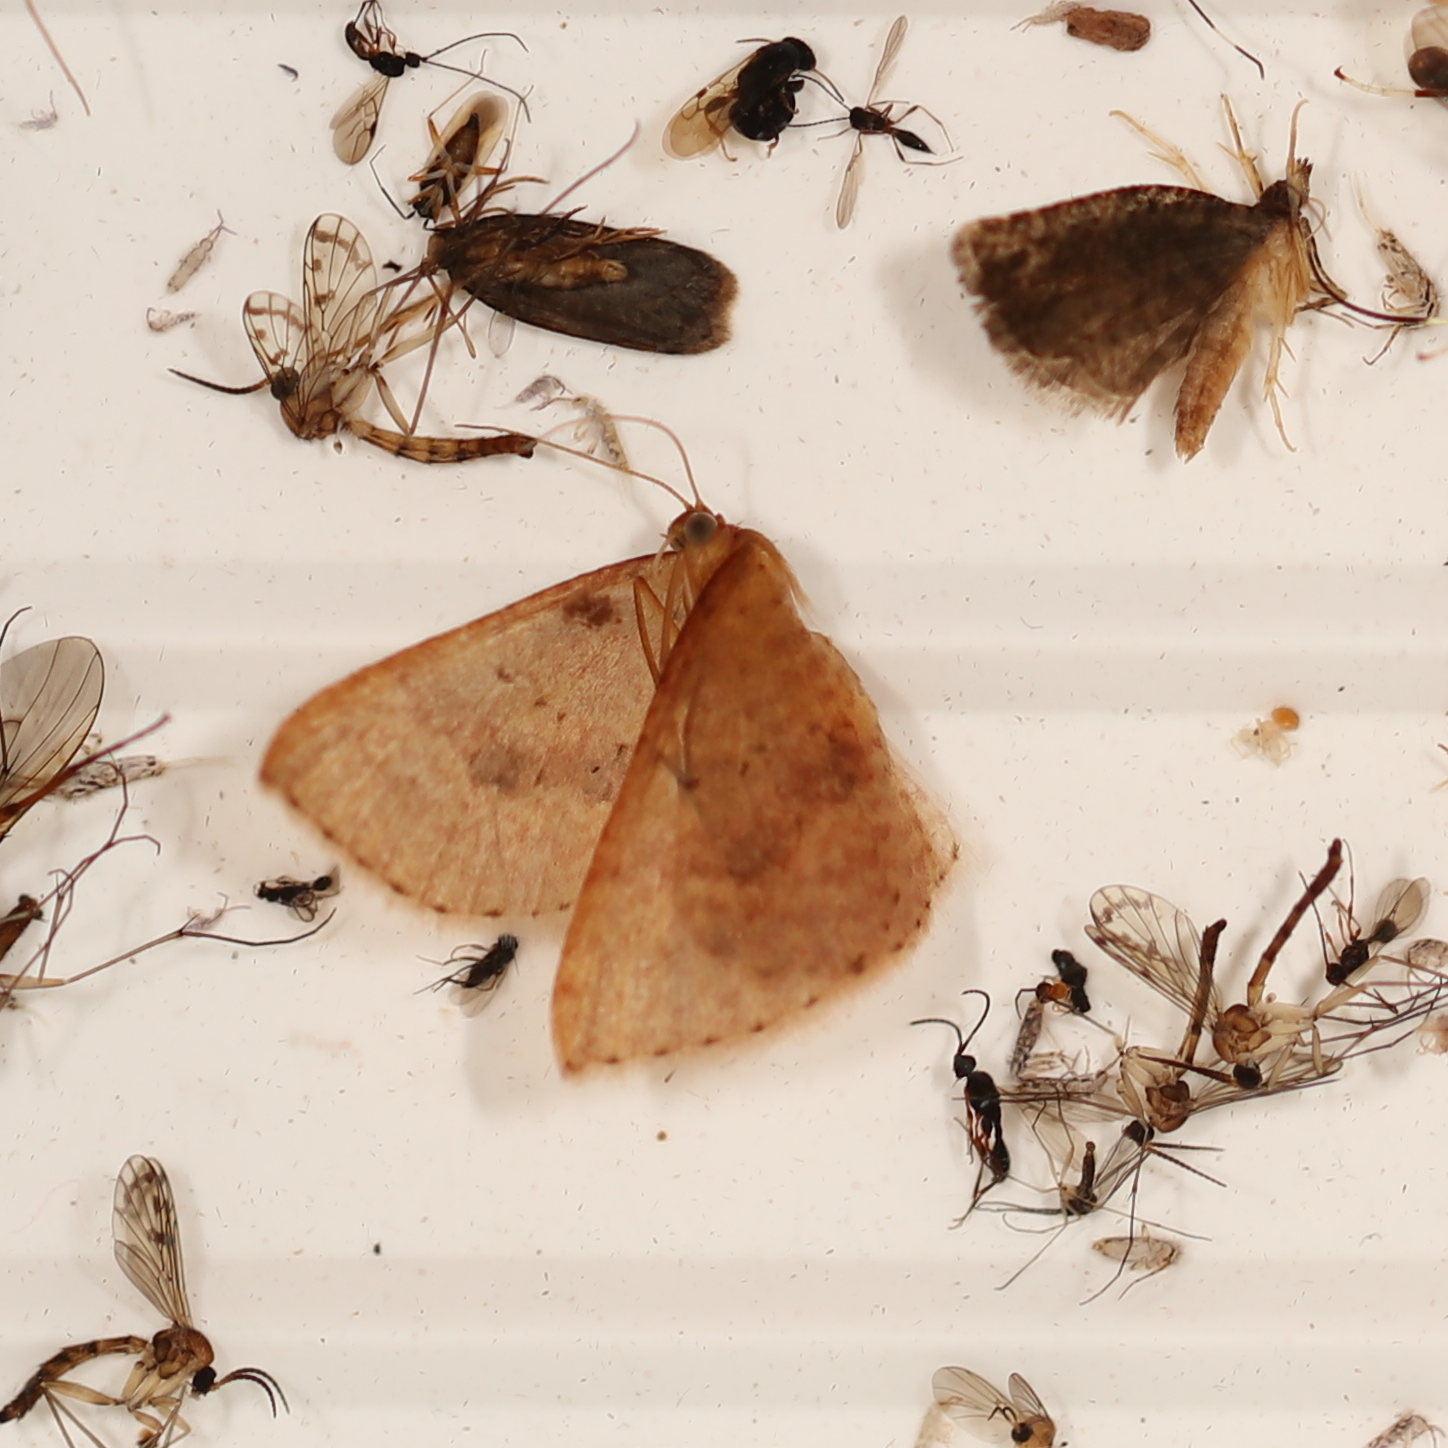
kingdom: Animalia
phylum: Arthropoda
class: Insecta
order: Lepidoptera
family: Geometridae
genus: Epicyme
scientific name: Epicyme rubropunctaria
